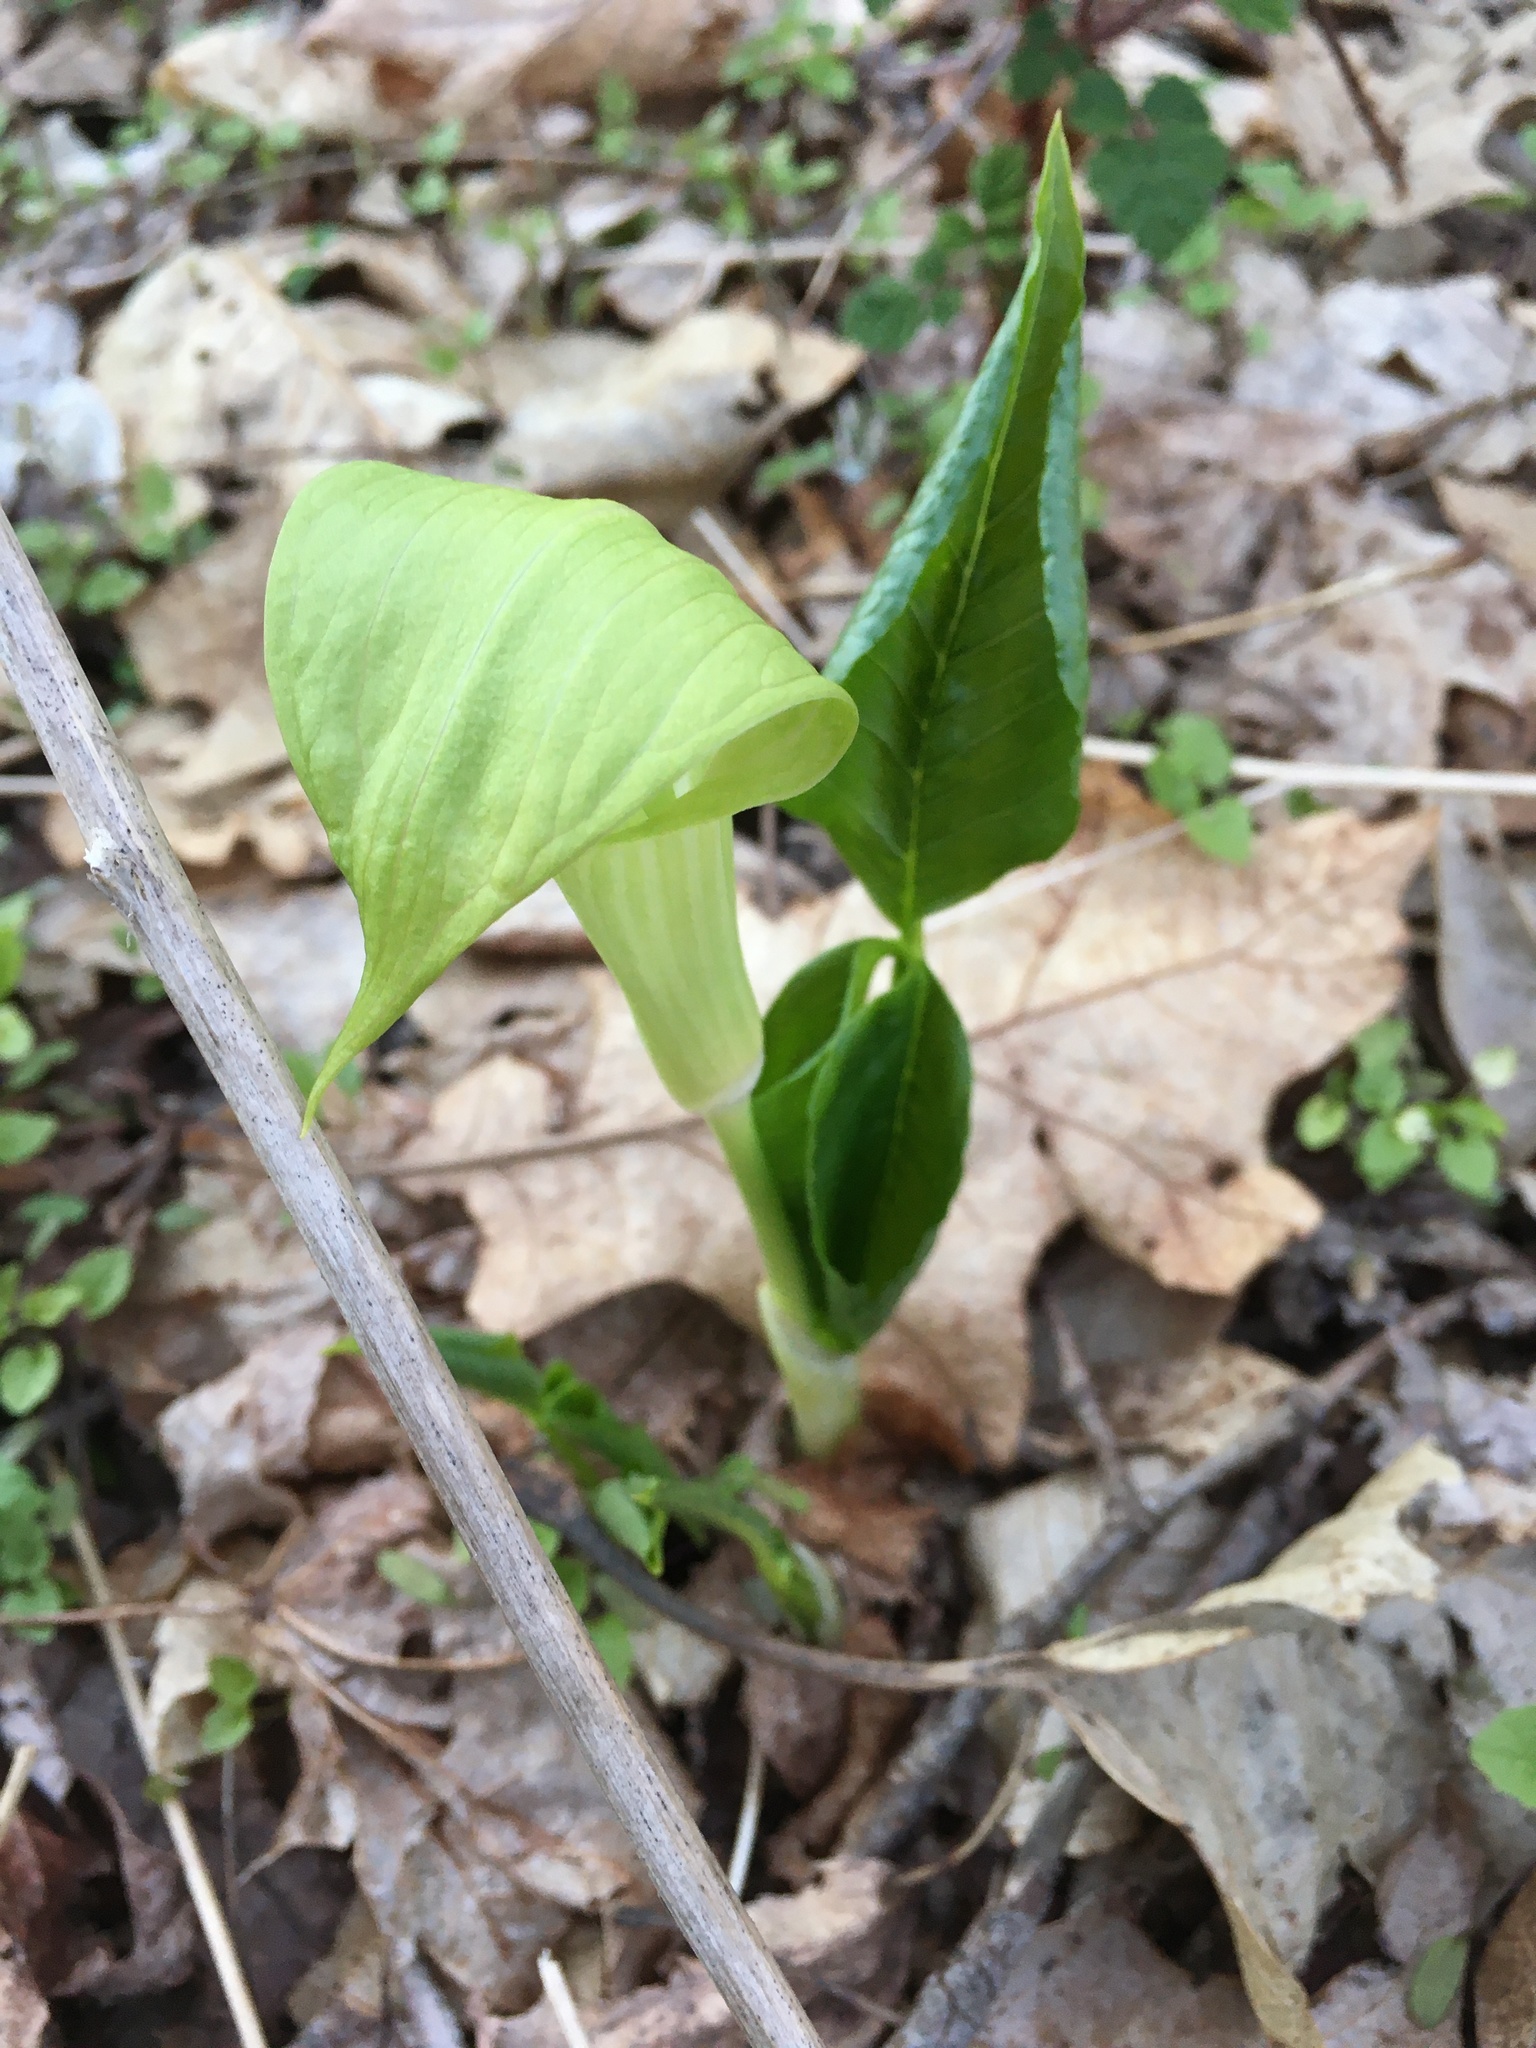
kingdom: Plantae
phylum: Tracheophyta
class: Liliopsida
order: Alismatales
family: Araceae
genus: Arisaema
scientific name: Arisaema triphyllum
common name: Jack-in-the-pulpit
